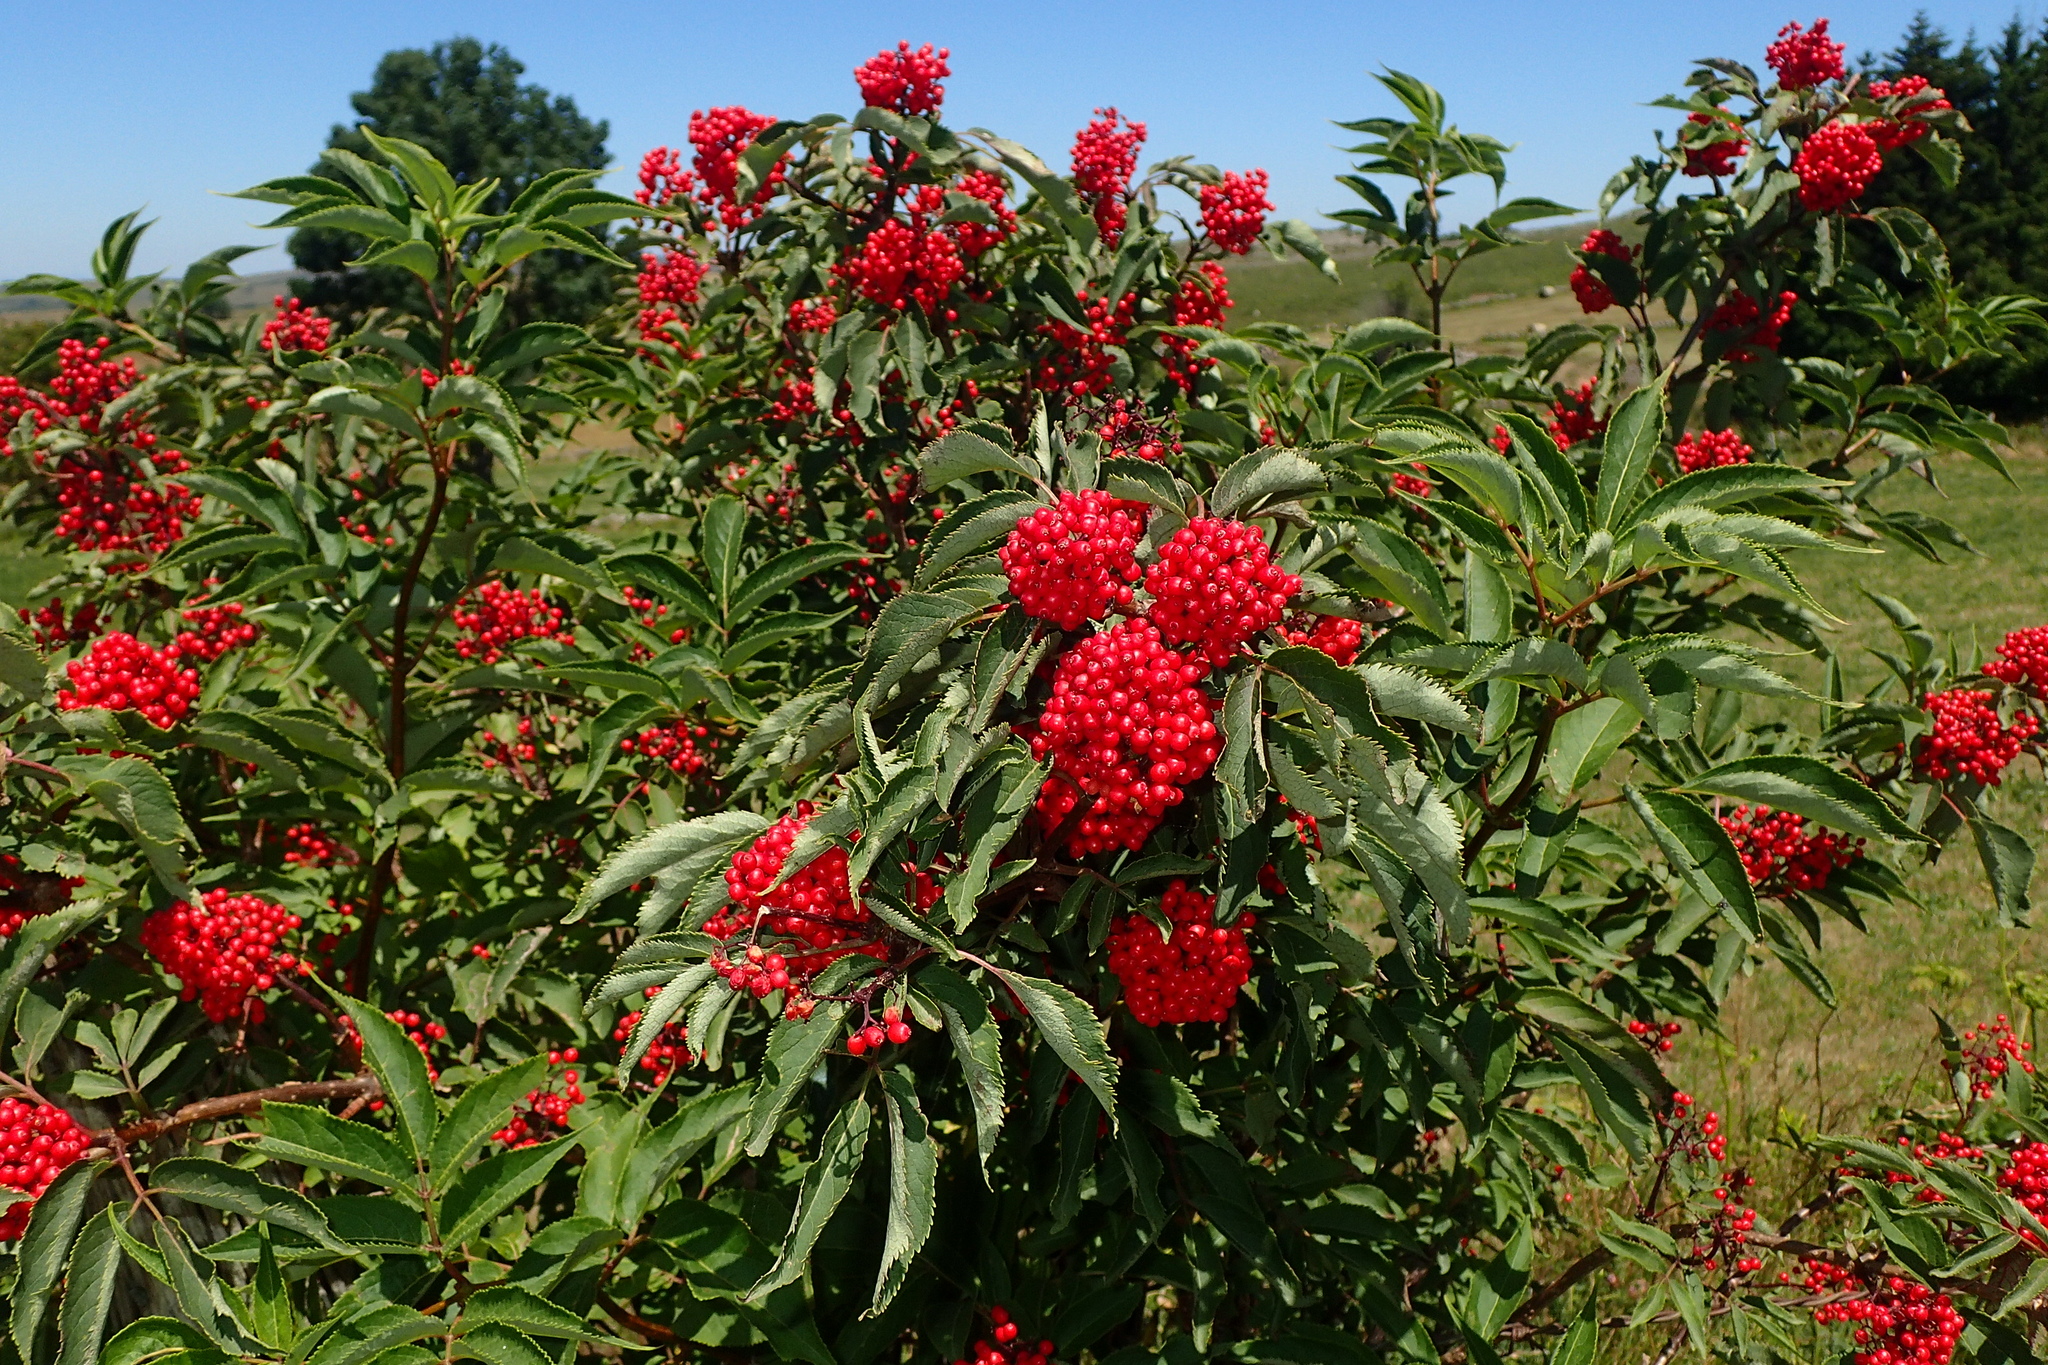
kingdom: Plantae
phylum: Tracheophyta
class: Magnoliopsida
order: Dipsacales
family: Viburnaceae
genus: Sambucus
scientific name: Sambucus racemosa
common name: Red-berried elder
